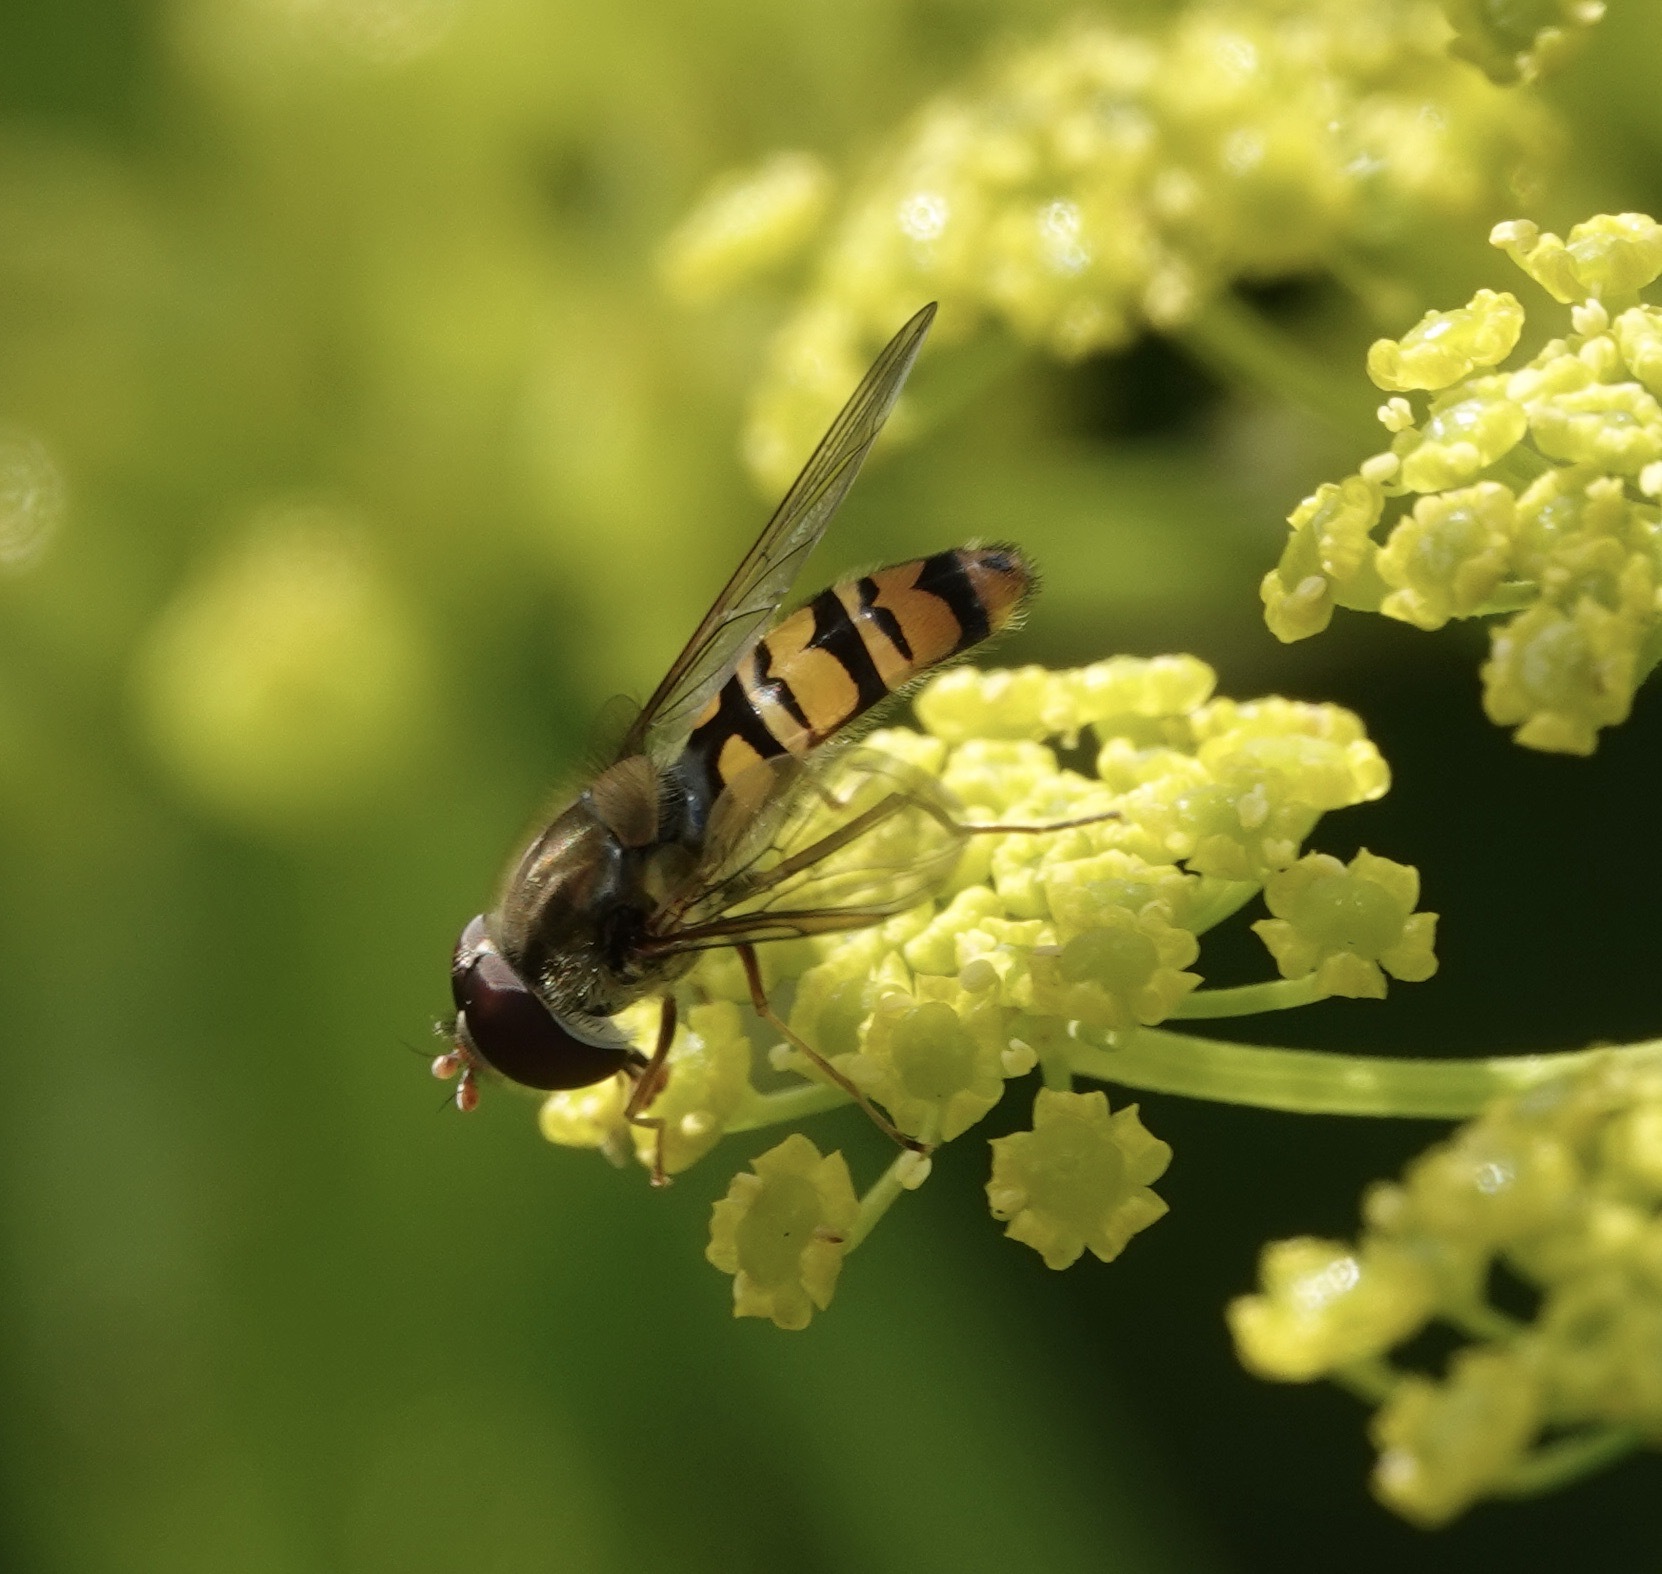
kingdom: Animalia
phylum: Arthropoda
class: Insecta
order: Diptera
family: Syrphidae
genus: Episyrphus
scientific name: Episyrphus balteatus
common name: Marmalade hoverfly
